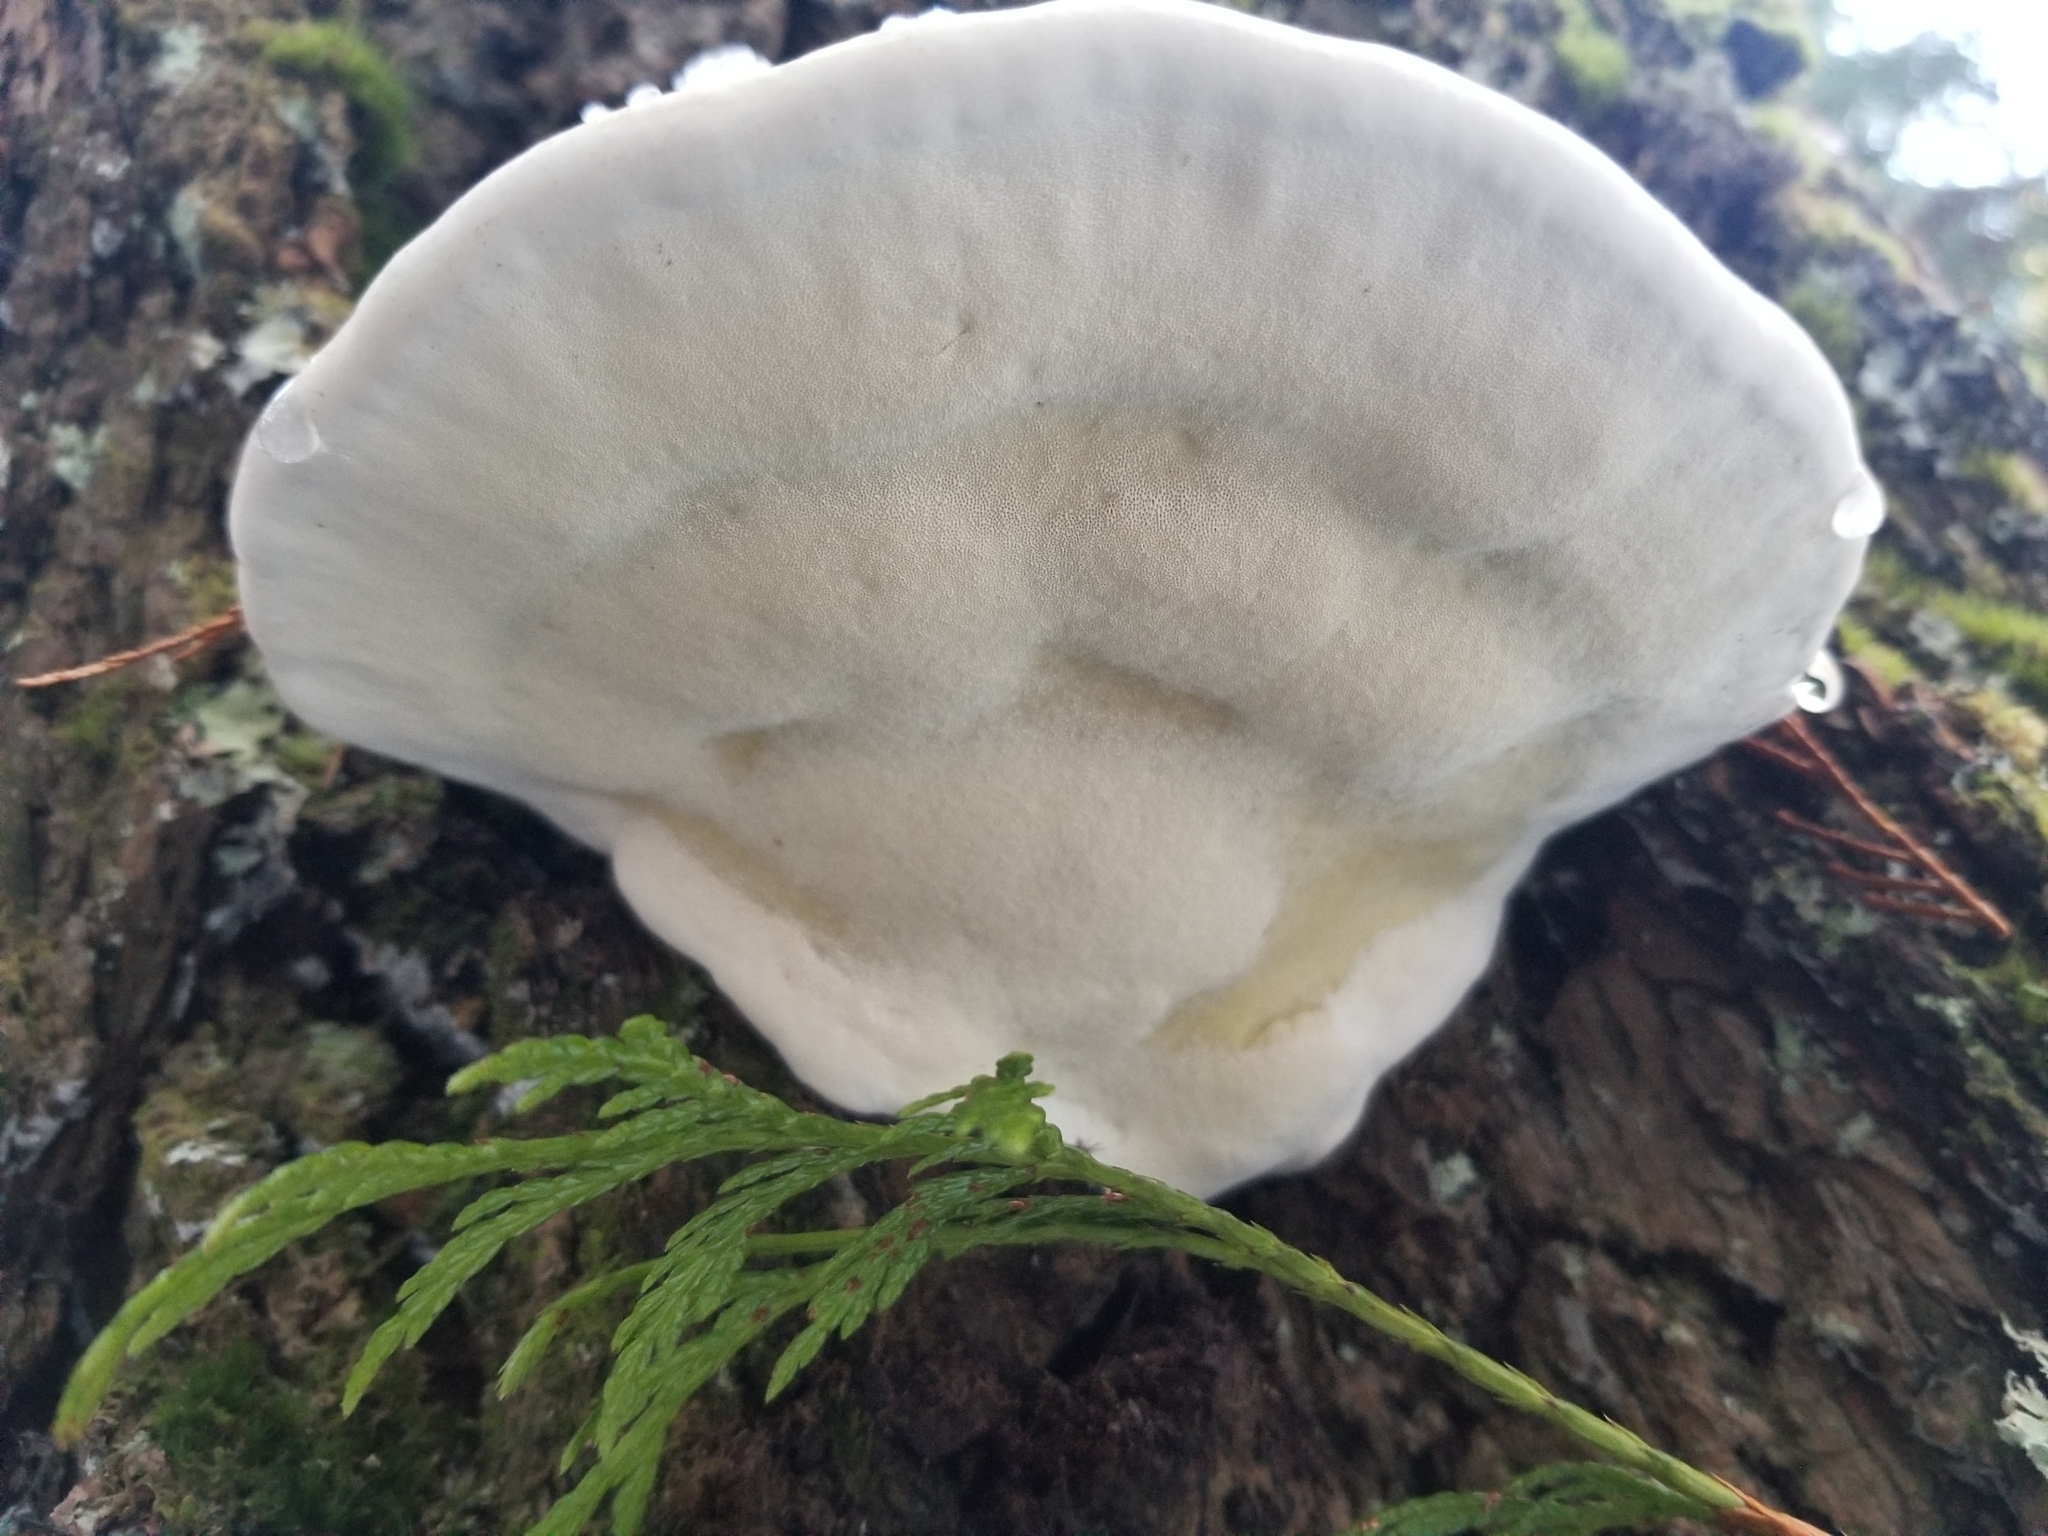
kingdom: Fungi
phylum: Basidiomycota
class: Agaricomycetes
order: Polyporales
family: Fomitopsidaceae
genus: Fomitopsis
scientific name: Fomitopsis mounceae
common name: Northern red belt
